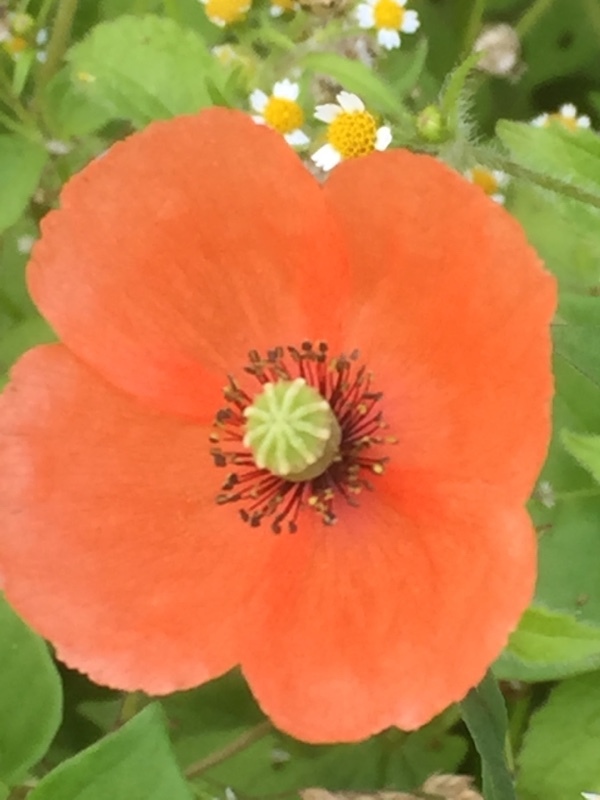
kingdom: Plantae
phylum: Tracheophyta
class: Magnoliopsida
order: Ranunculales
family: Papaveraceae
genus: Papaver
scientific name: Papaver rhoeas
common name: Corn poppy
